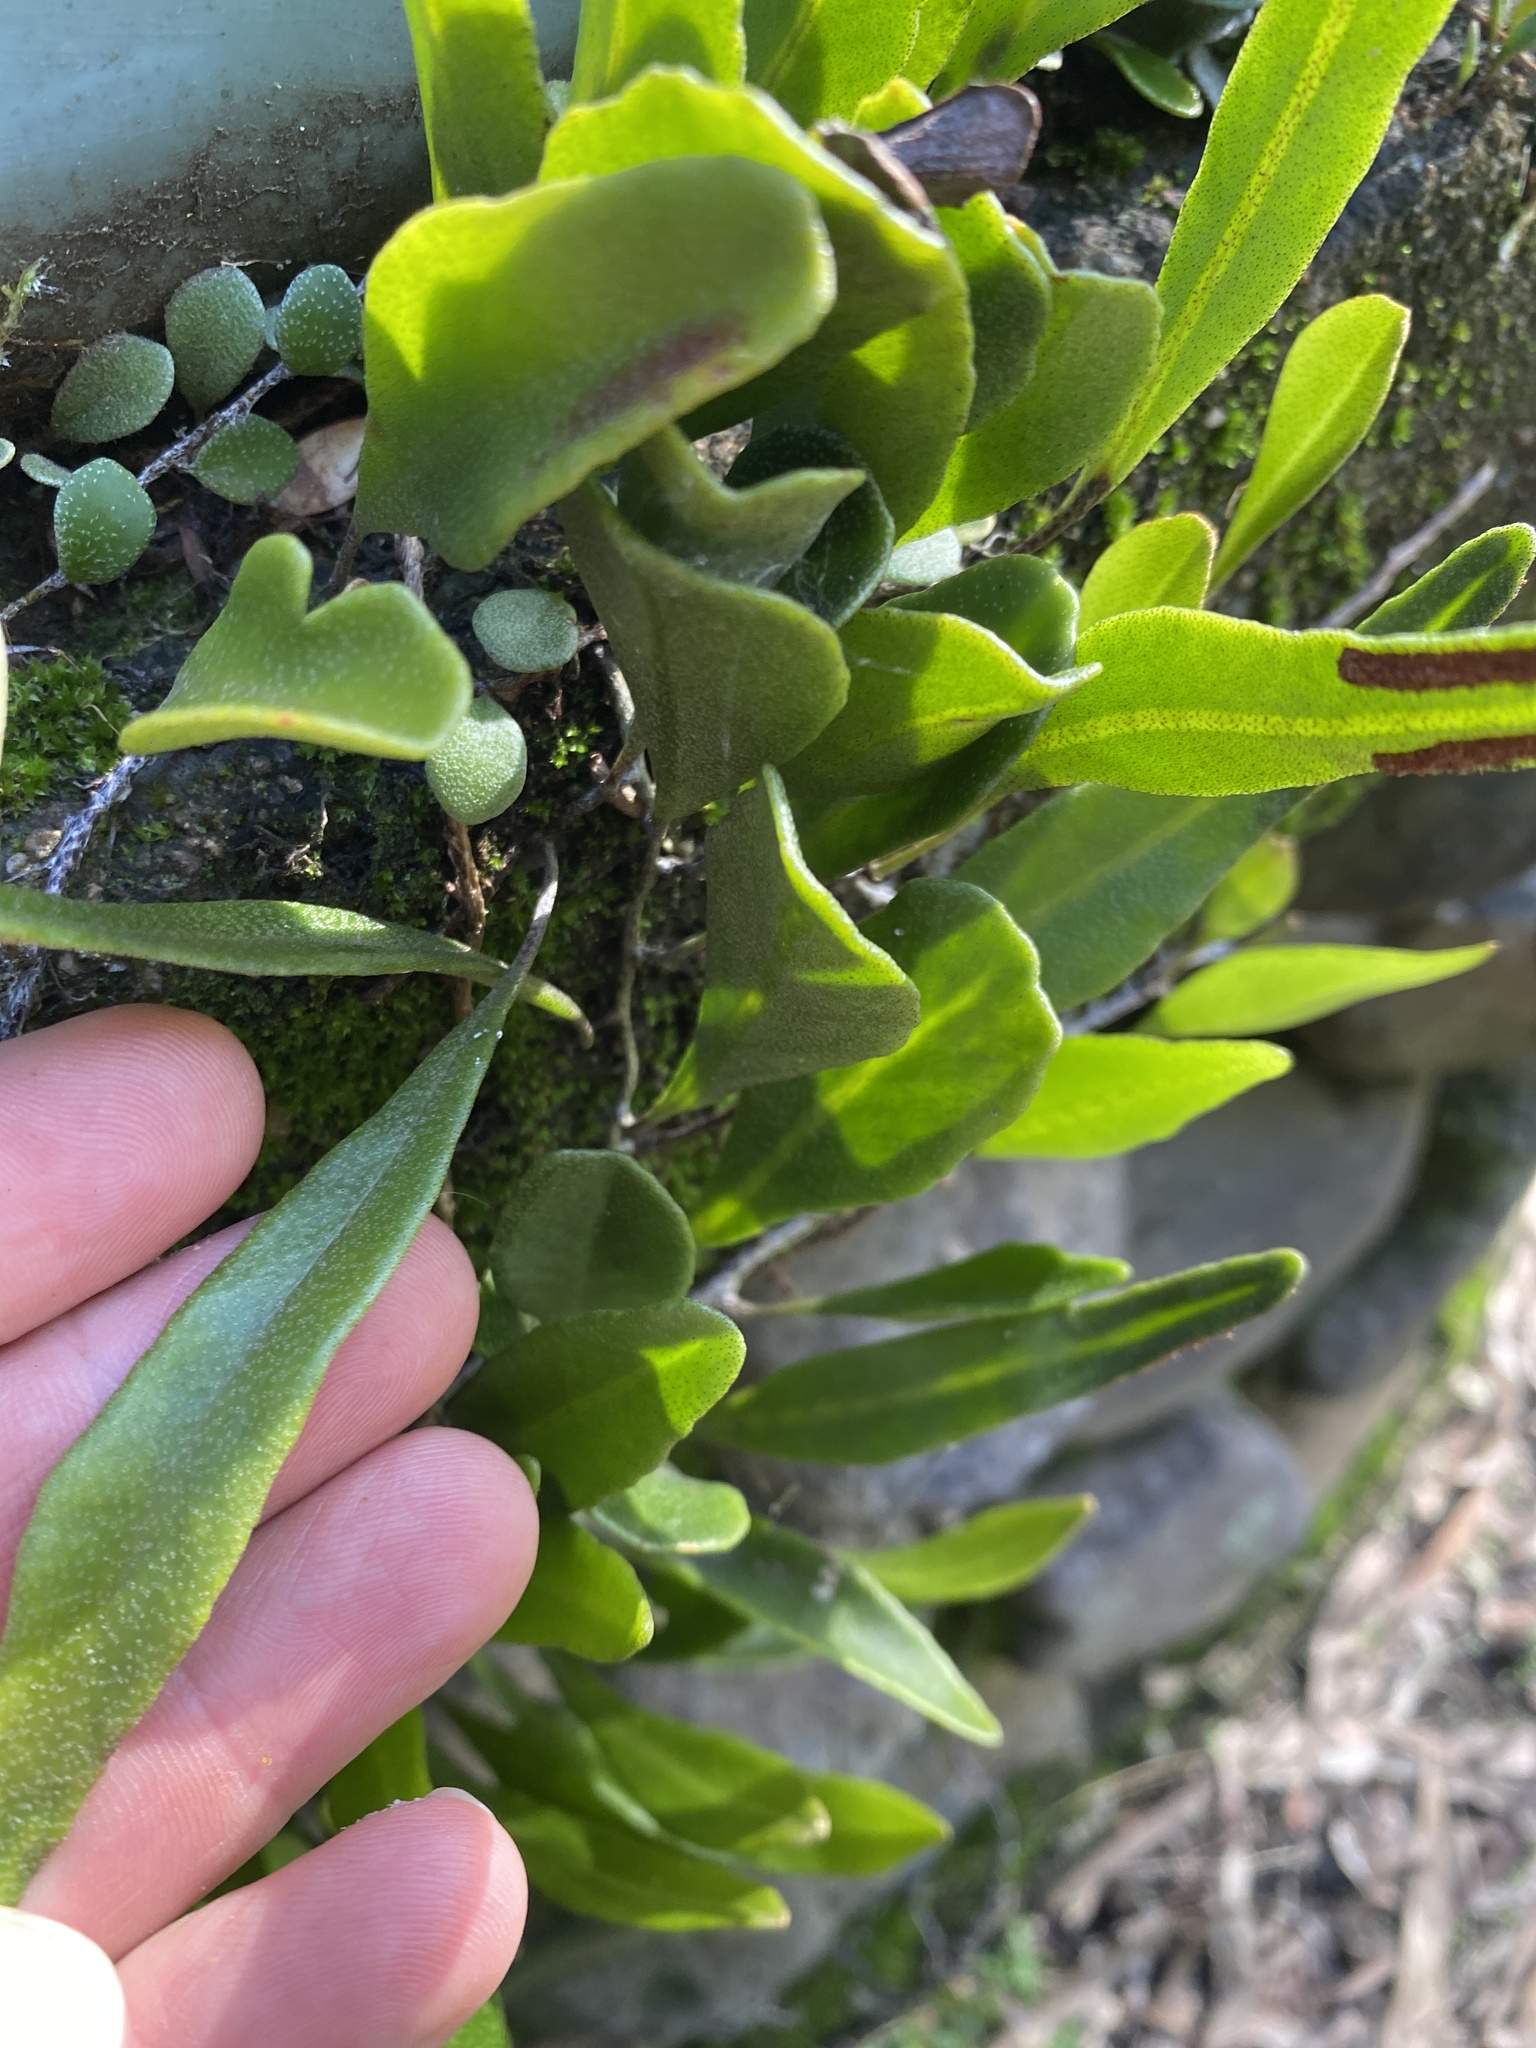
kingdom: Plantae
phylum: Tracheophyta
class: Polypodiopsida
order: Polypodiales
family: Polypodiaceae
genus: Pyrrosia
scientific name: Pyrrosia confluens
